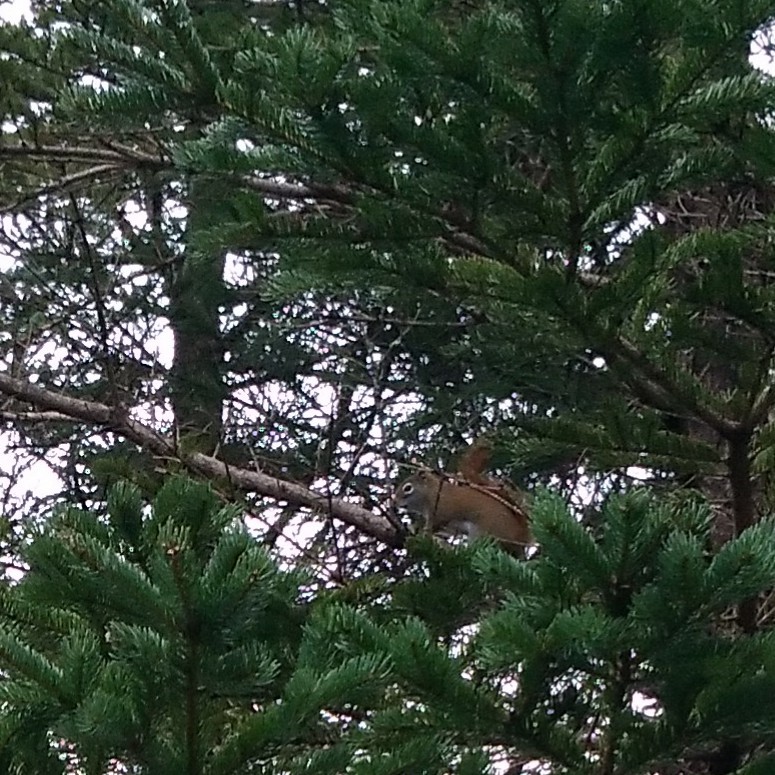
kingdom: Animalia
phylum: Chordata
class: Mammalia
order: Rodentia
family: Sciuridae
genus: Tamiasciurus
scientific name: Tamiasciurus hudsonicus
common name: Red squirrel
